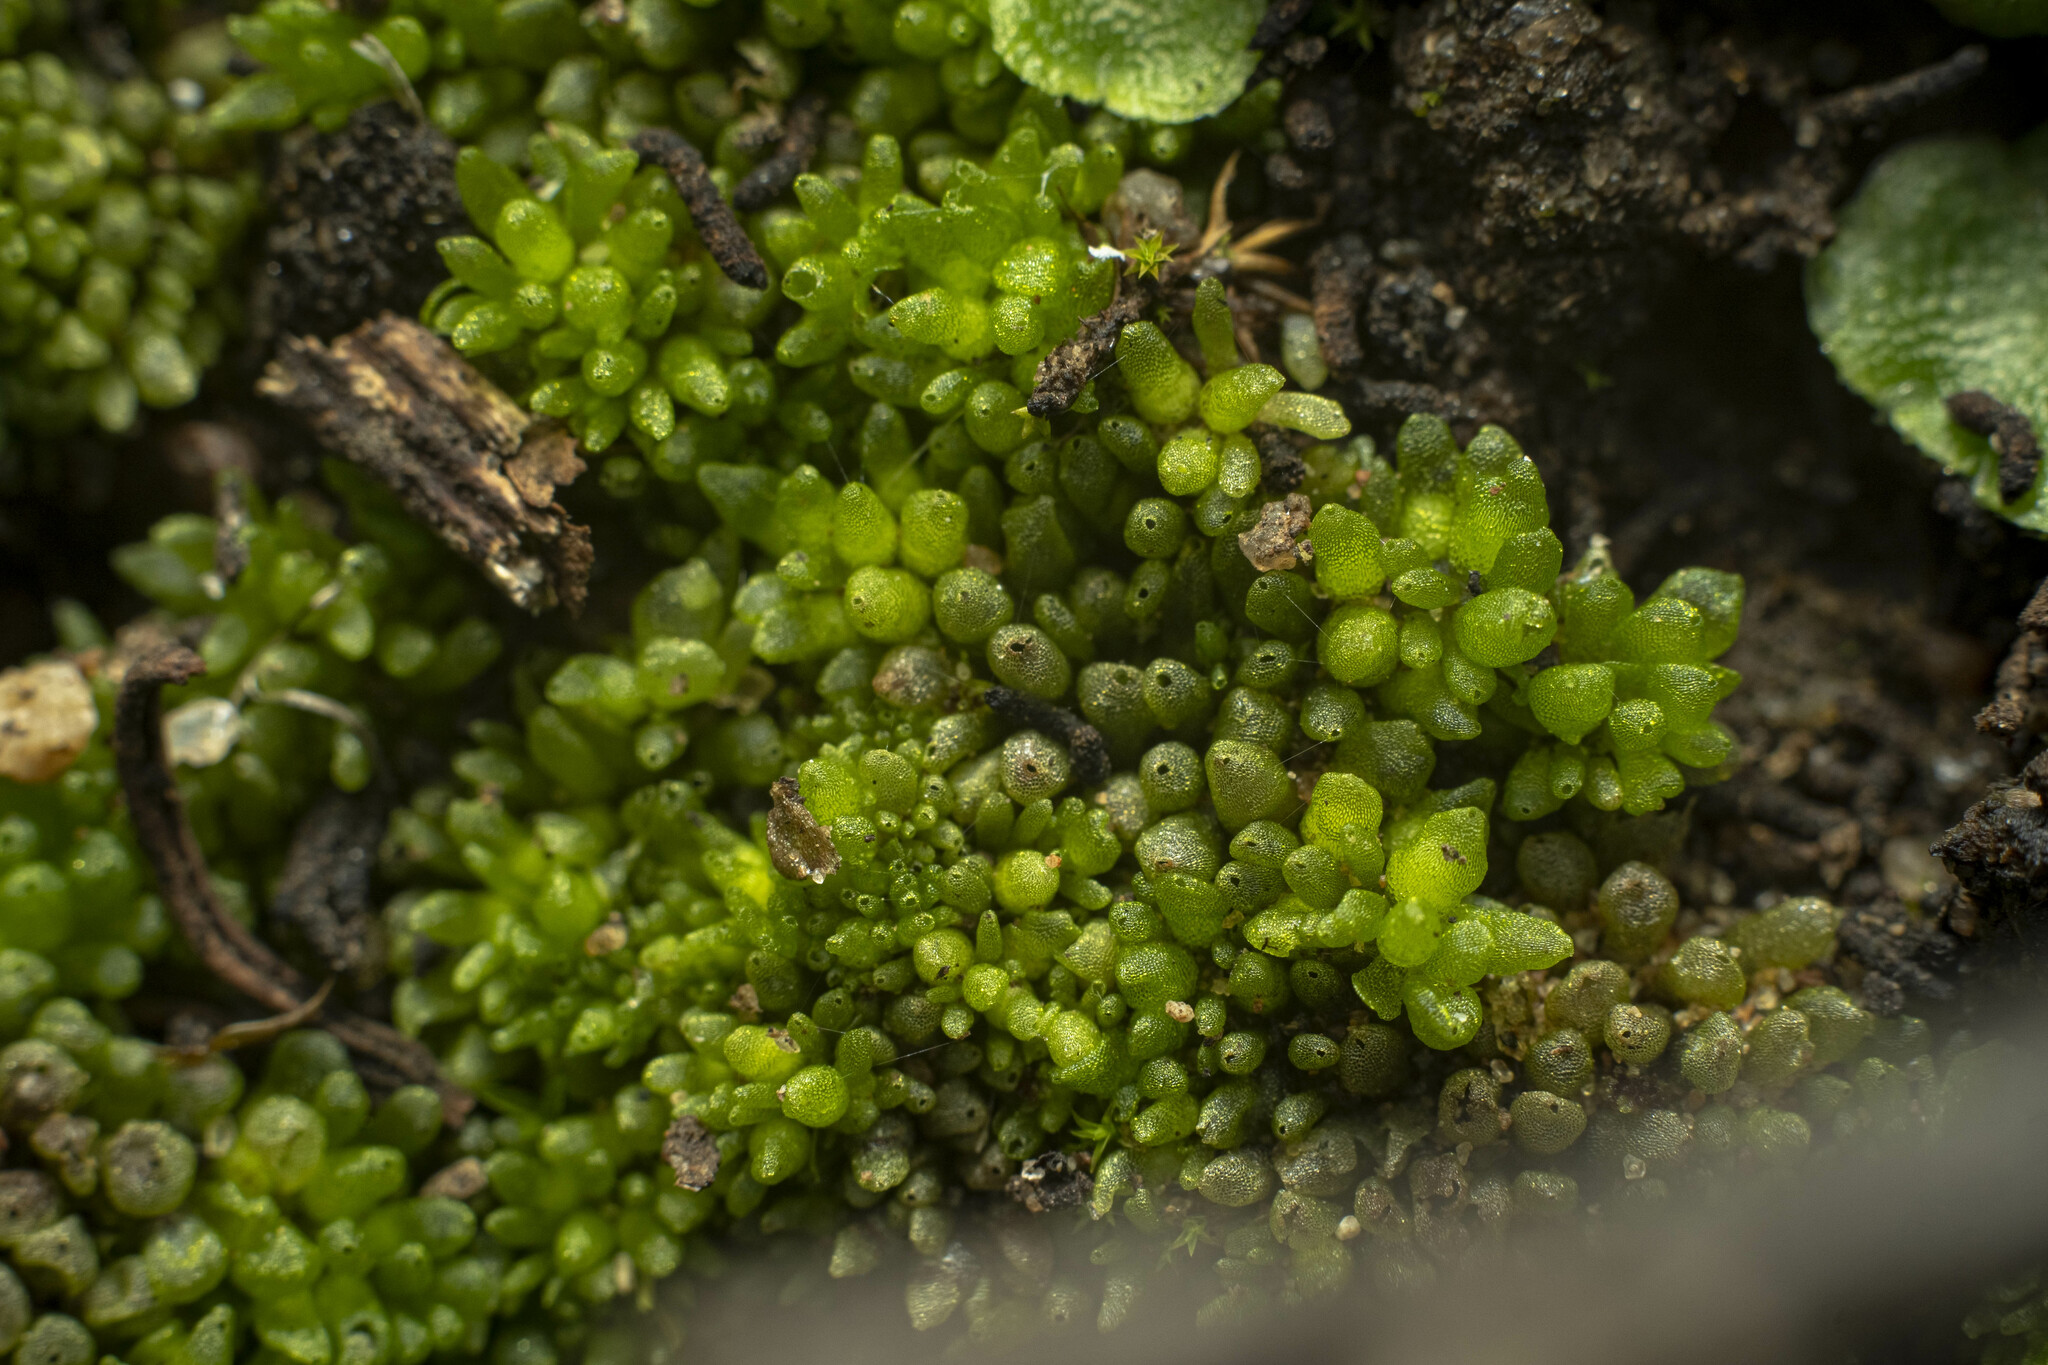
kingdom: Plantae
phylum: Marchantiophyta
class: Marchantiopsida
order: Sphaerocarpales
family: Sphaerocarpaceae
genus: Sphaerocarpos
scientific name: Sphaerocarpos
